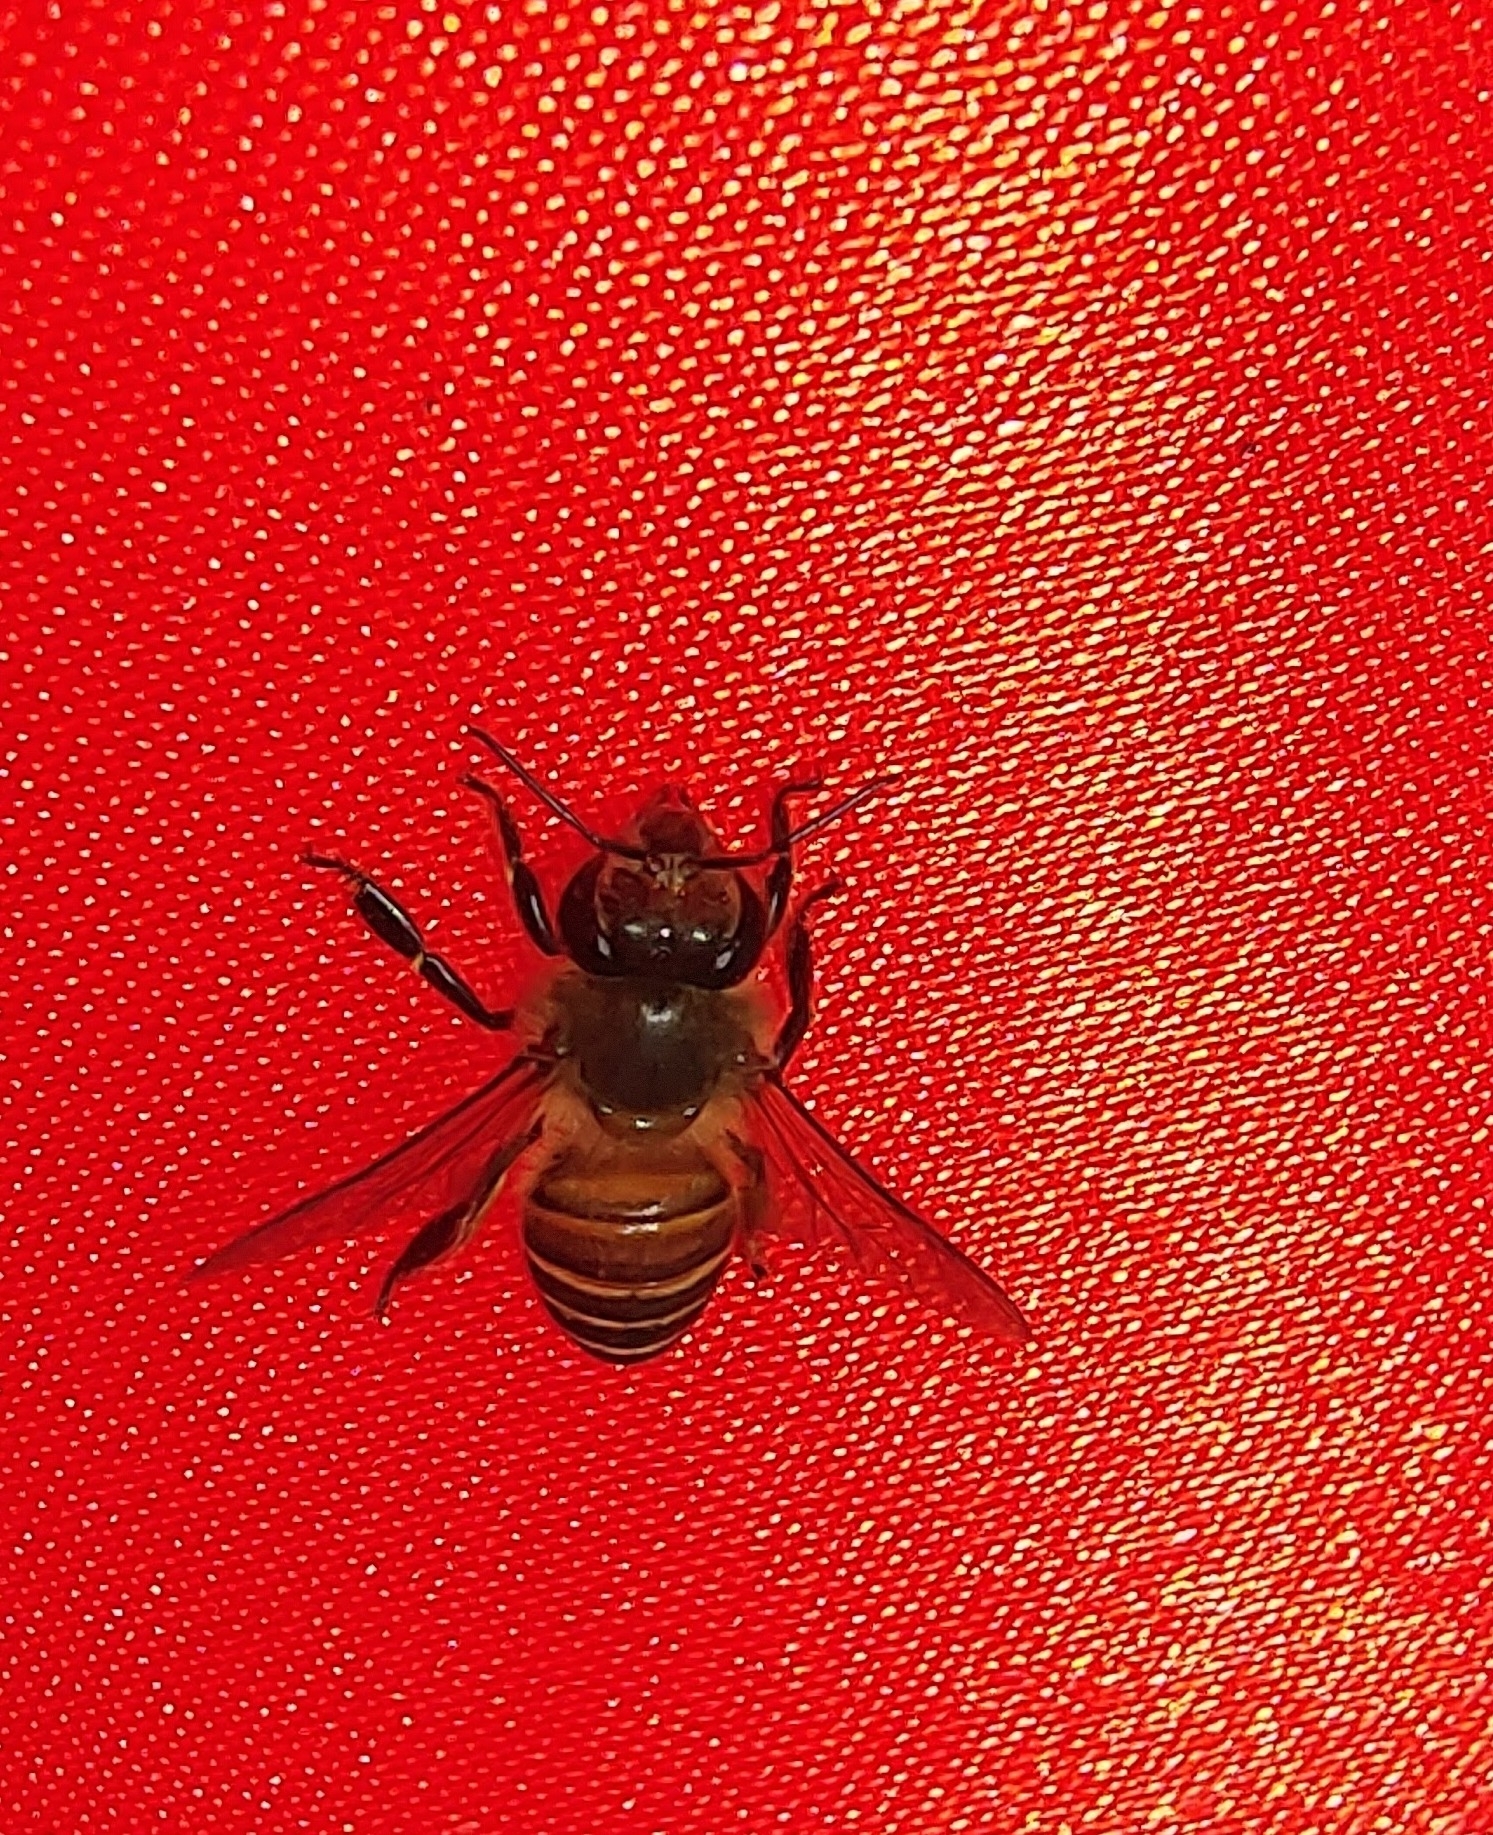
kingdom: Animalia
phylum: Arthropoda
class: Insecta
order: Hymenoptera
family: Apidae
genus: Apis
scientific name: Apis cerana
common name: Honey bee
